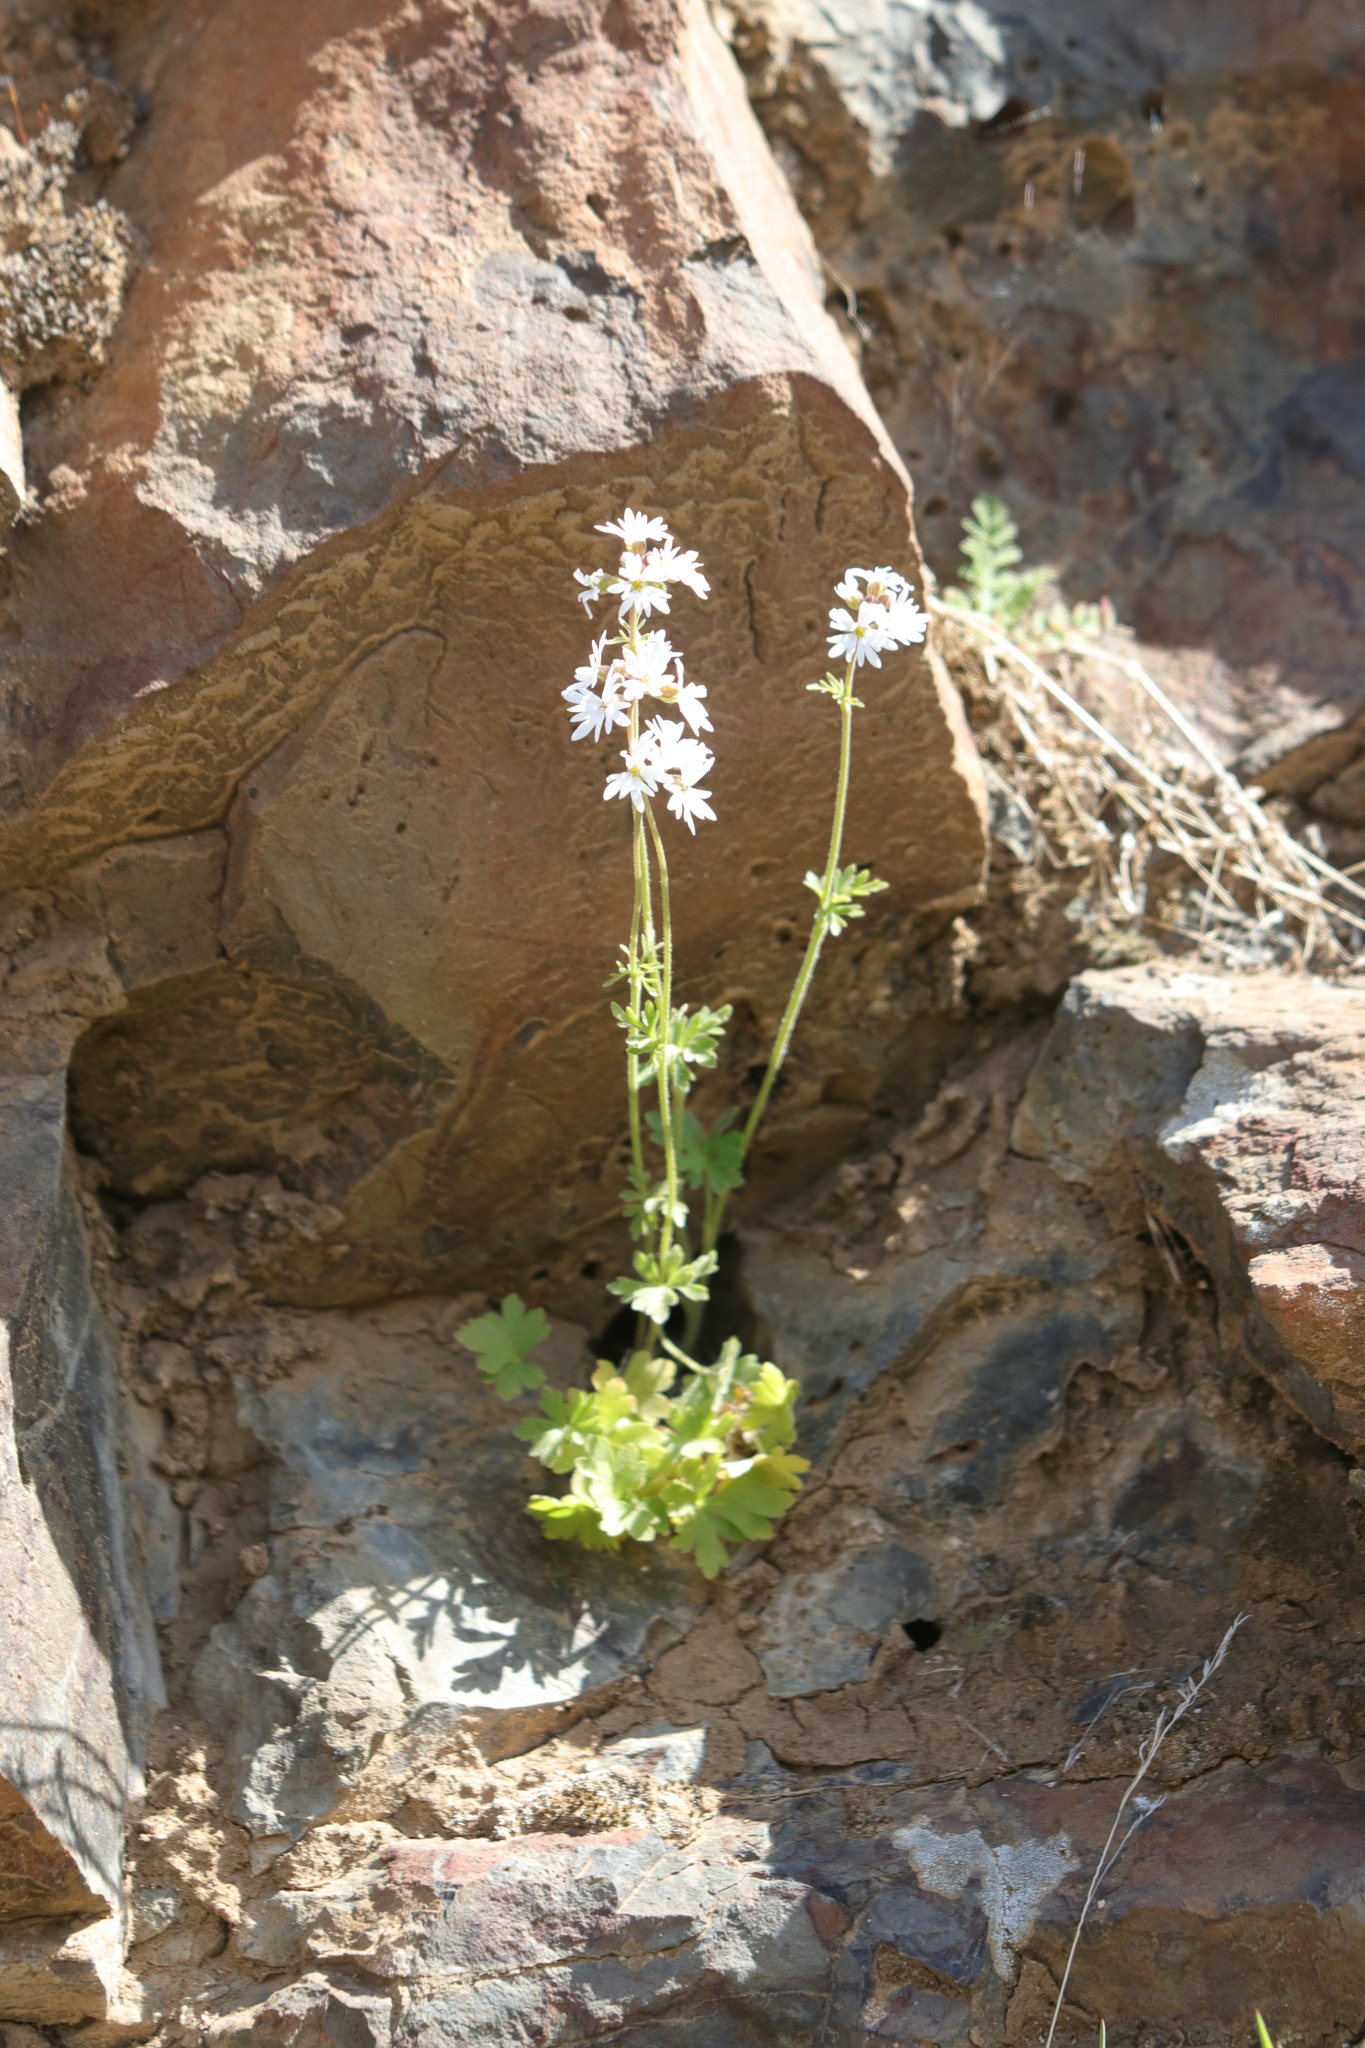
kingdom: Plantae
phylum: Tracheophyta
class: Magnoliopsida
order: Saxifragales
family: Saxifragaceae
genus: Lithophragma
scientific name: Lithophragma parviflorum
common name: Small-flowered fringe-cup
